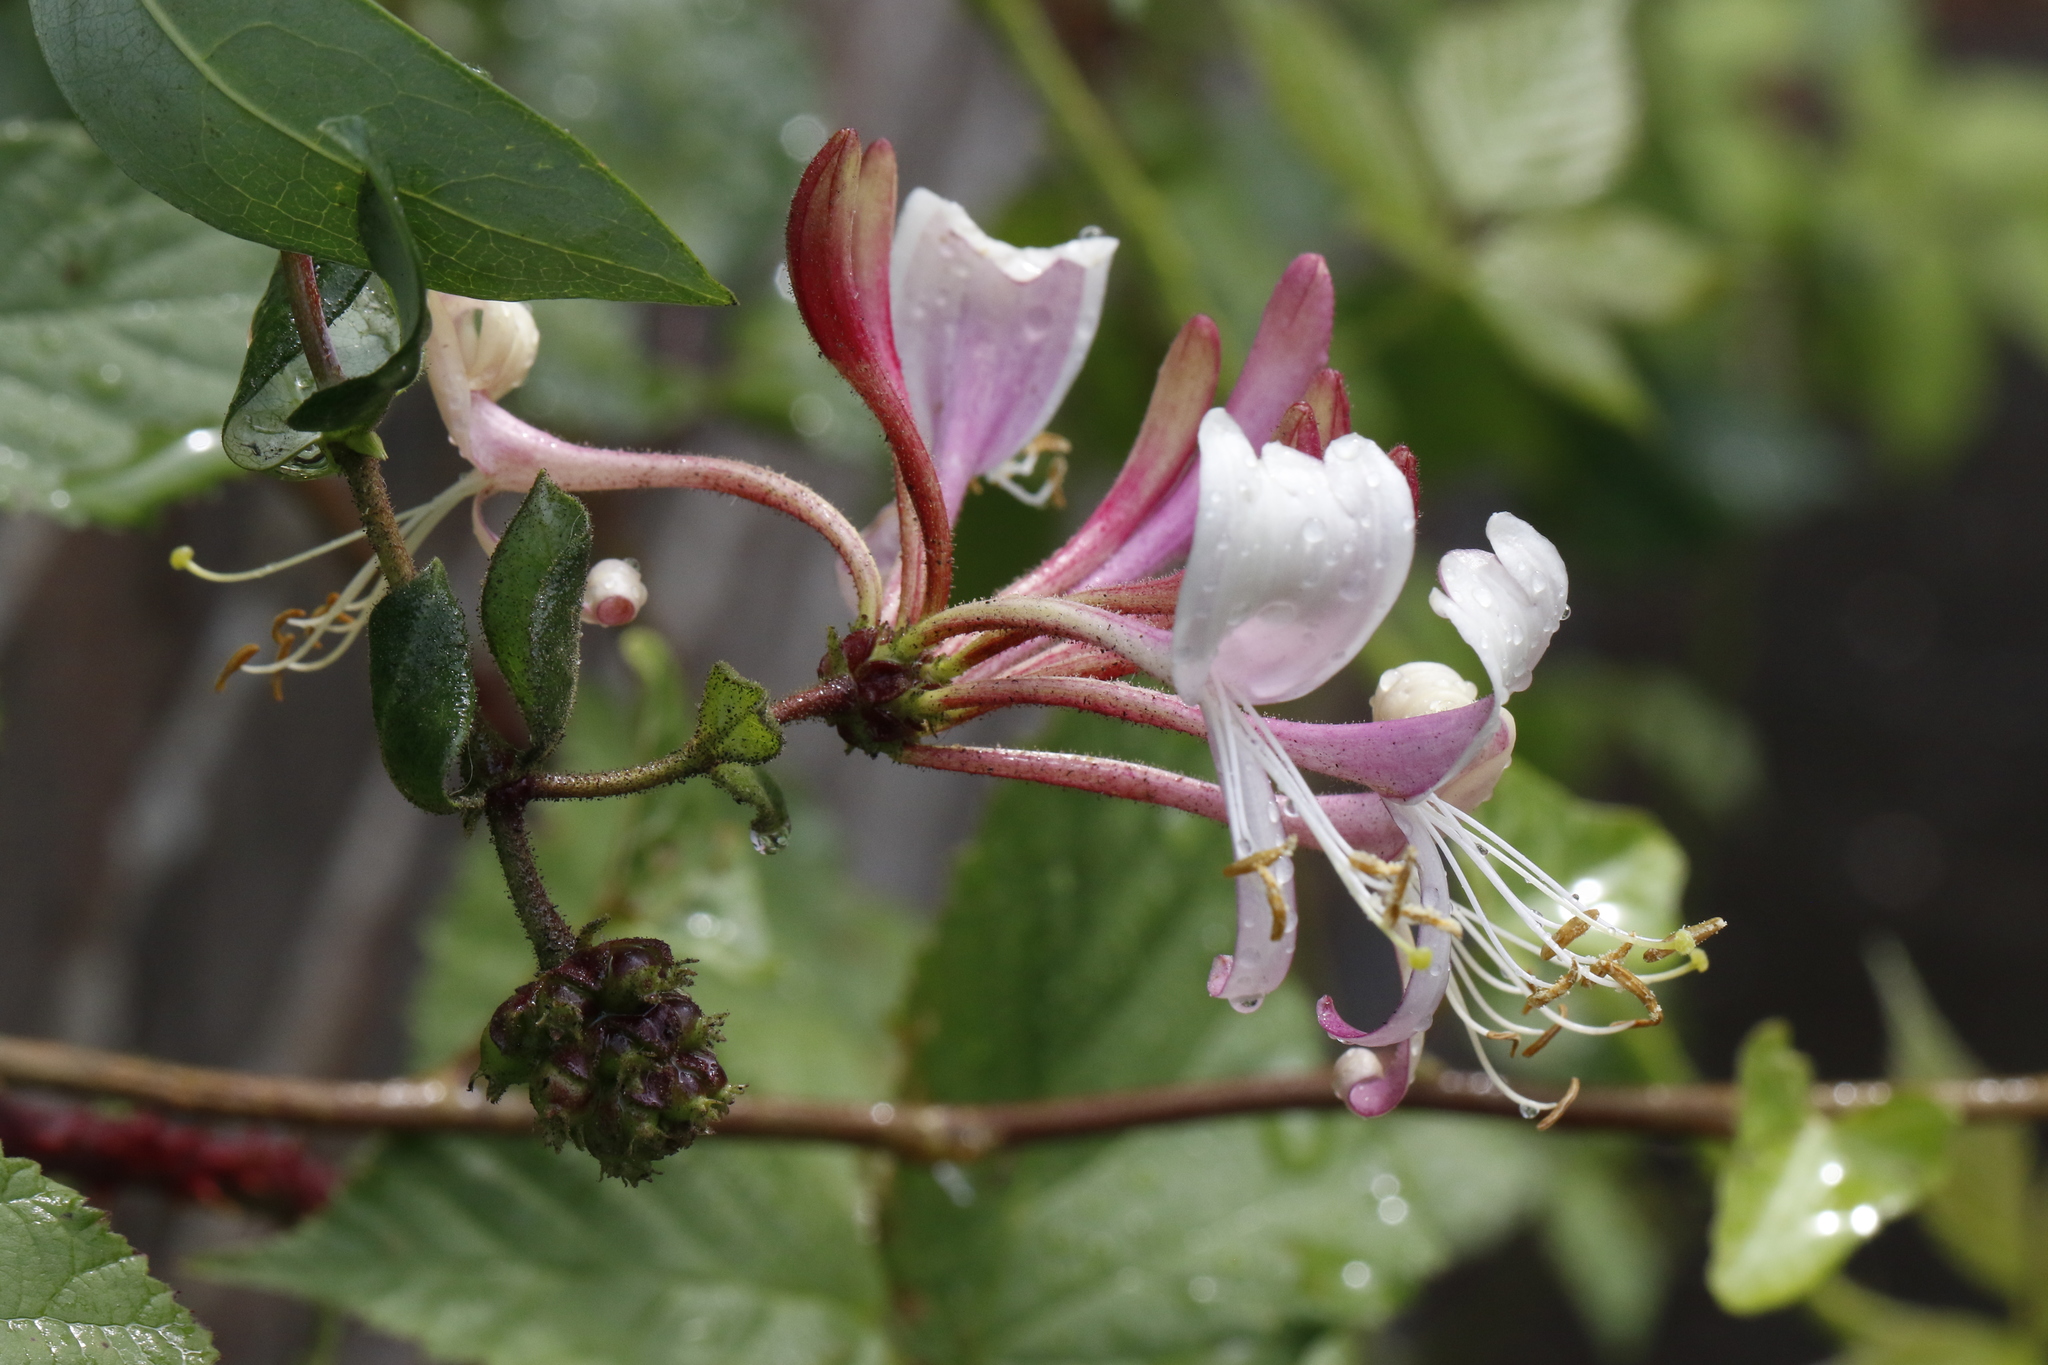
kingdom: Plantae
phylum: Tracheophyta
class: Magnoliopsida
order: Dipsacales
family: Caprifoliaceae
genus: Lonicera
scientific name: Lonicera periclymenum
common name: European honeysuckle
